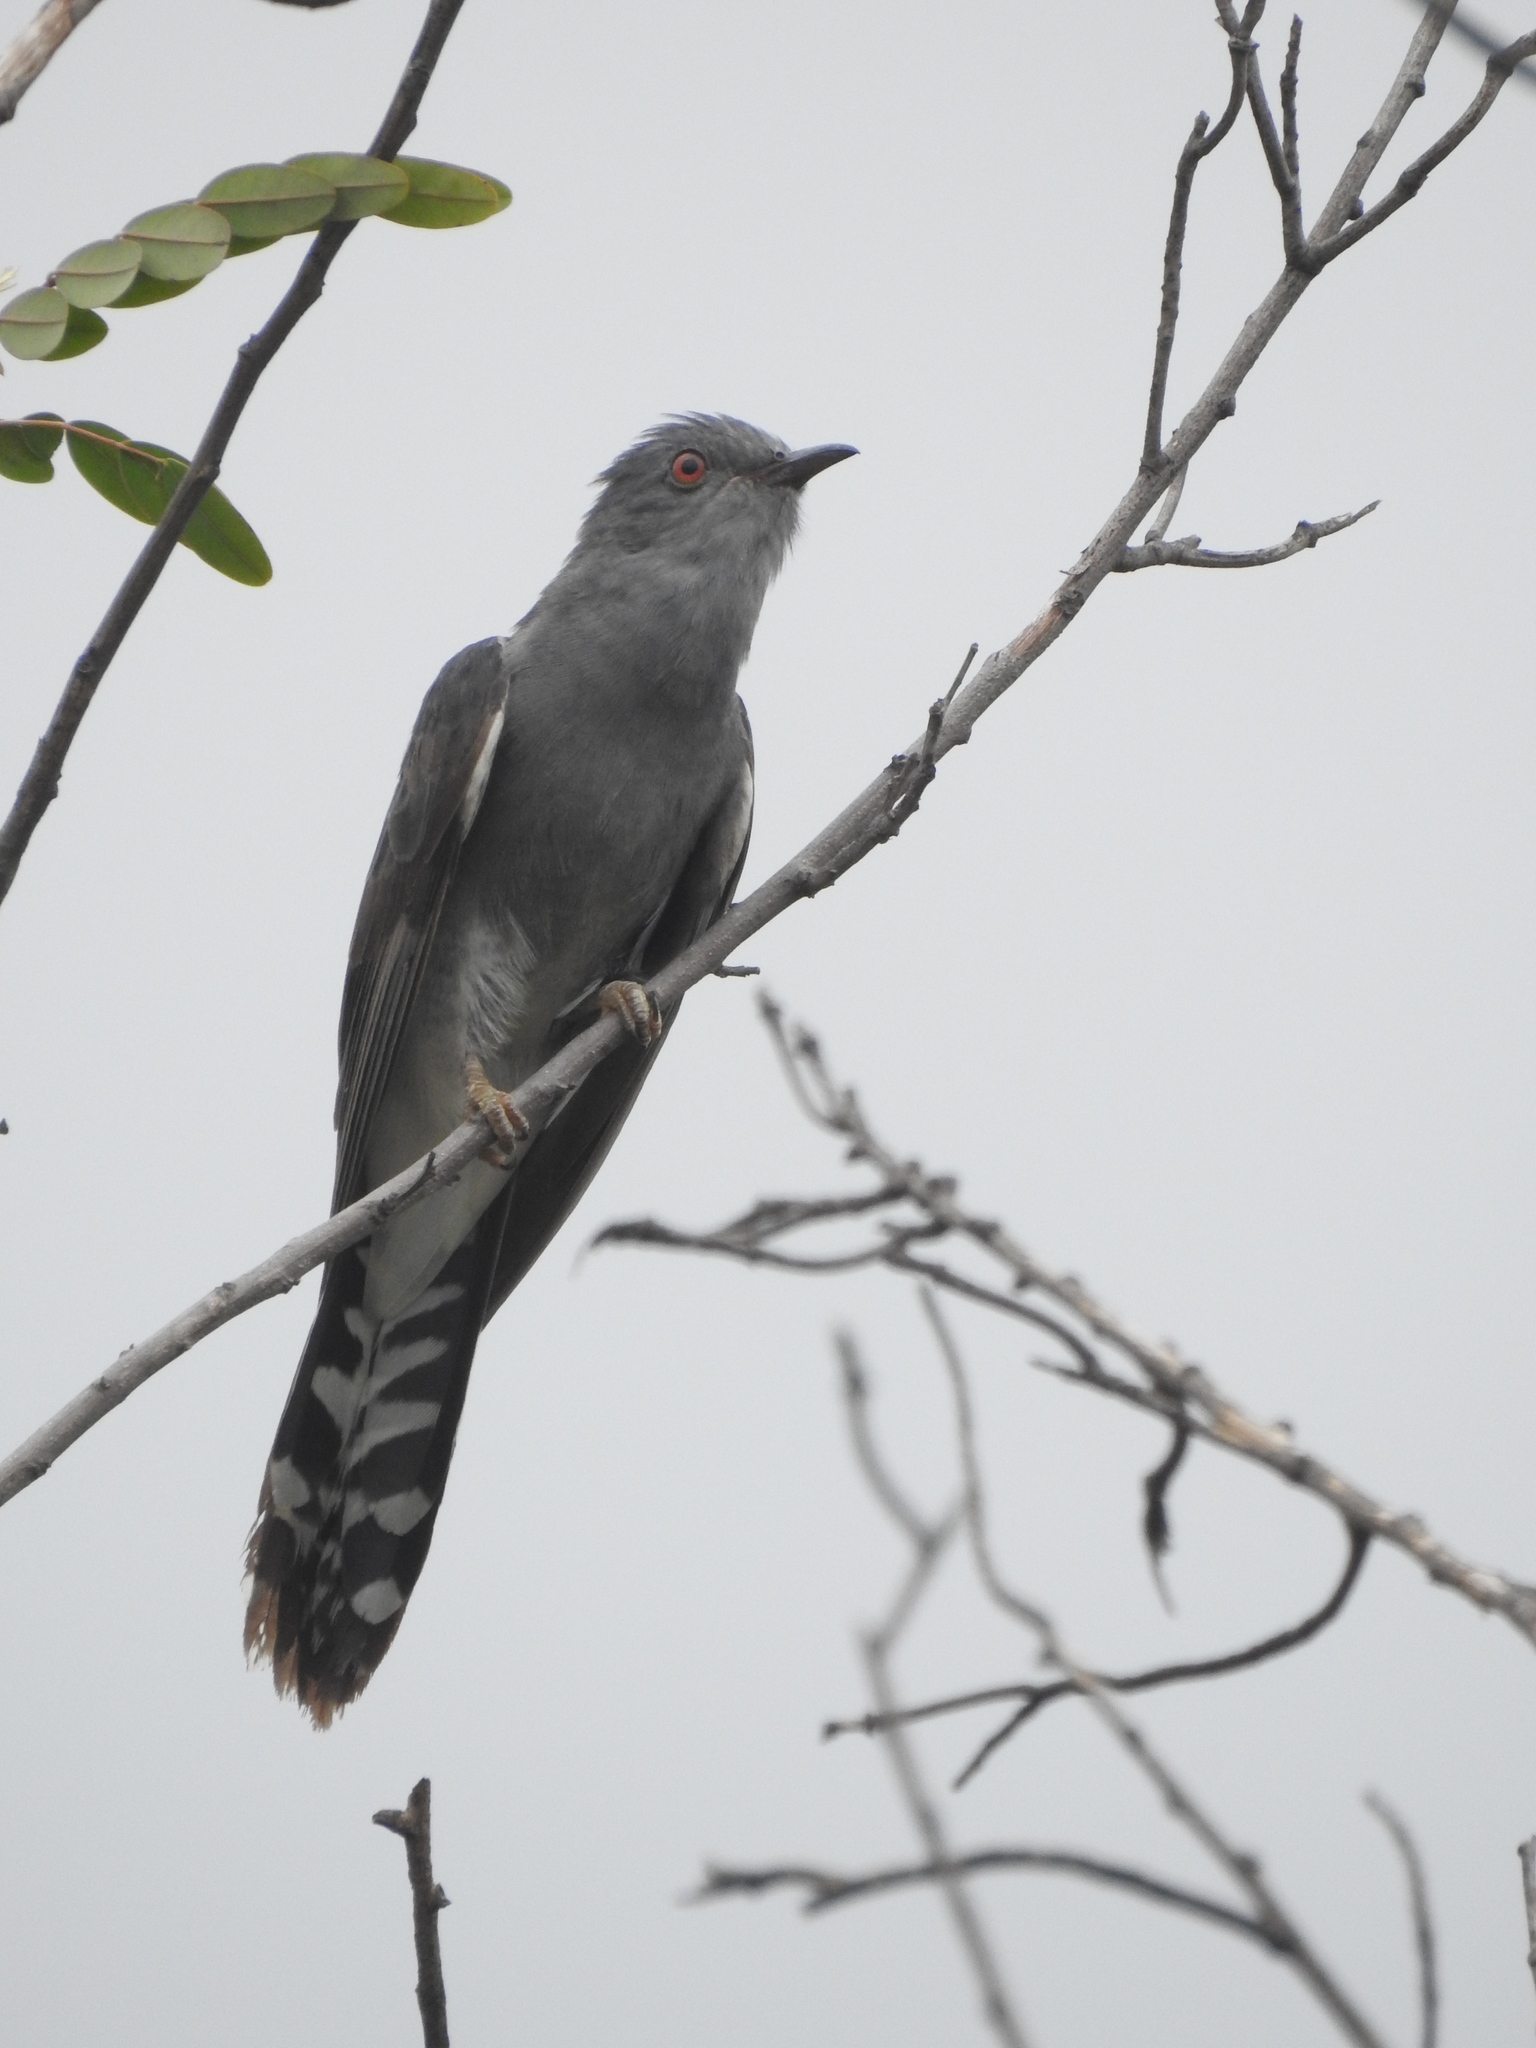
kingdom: Animalia
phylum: Chordata
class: Aves
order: Cuculiformes
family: Cuculidae
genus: Cacomantis
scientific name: Cacomantis passerinus
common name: Grey-bellied cuckoo
